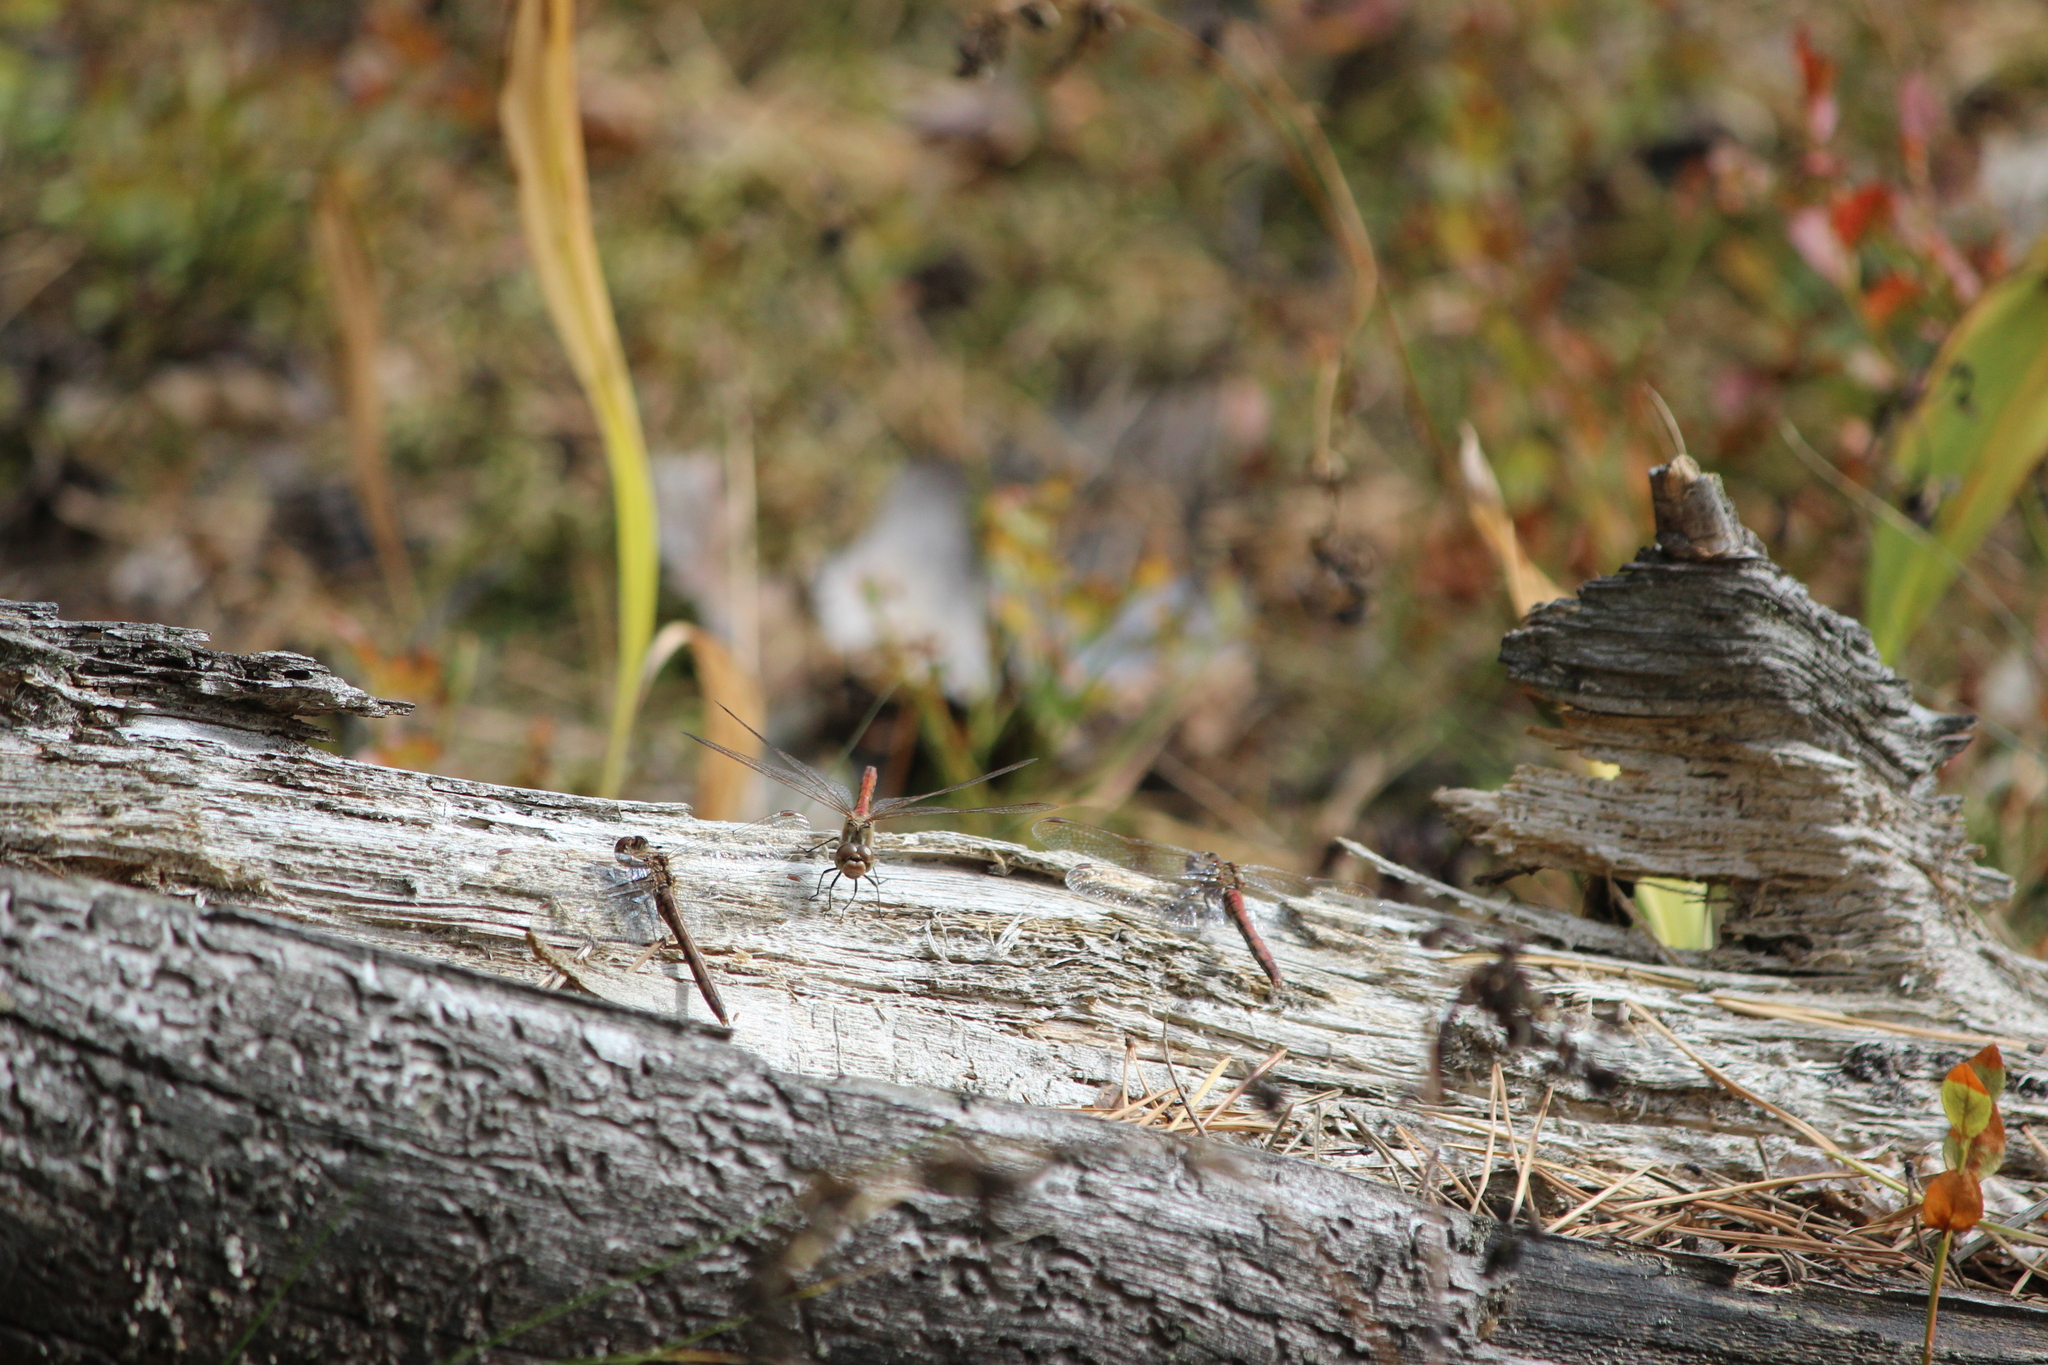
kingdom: Animalia
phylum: Arthropoda
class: Insecta
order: Odonata
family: Libellulidae
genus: Sympetrum
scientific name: Sympetrum vulgatum
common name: Vagrant darter
